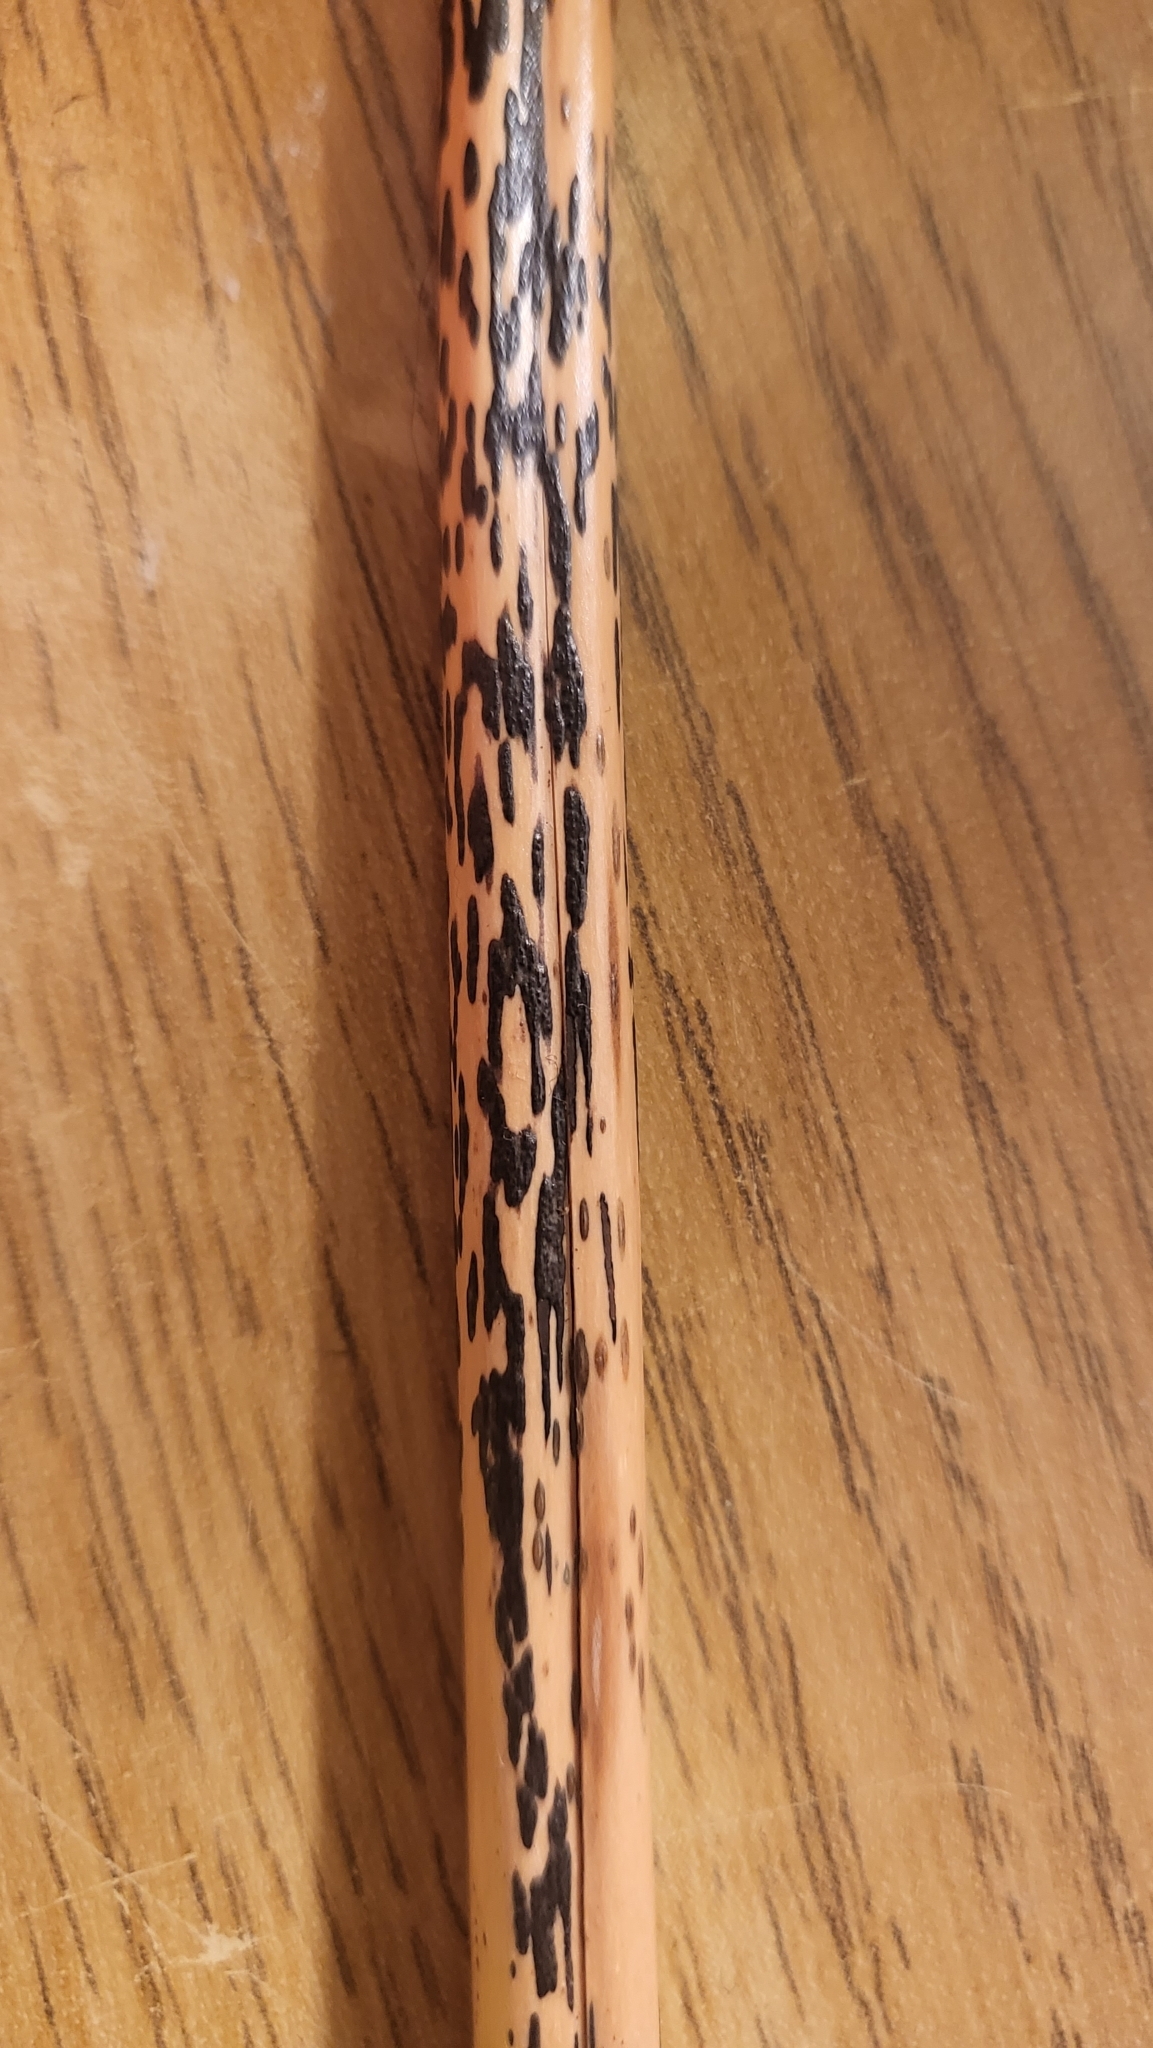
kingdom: Fungi
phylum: Ascomycota
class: Dothideomycetes
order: Pleosporales
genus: Rhopographus
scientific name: Rhopographus filicinus
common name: Bracken map
